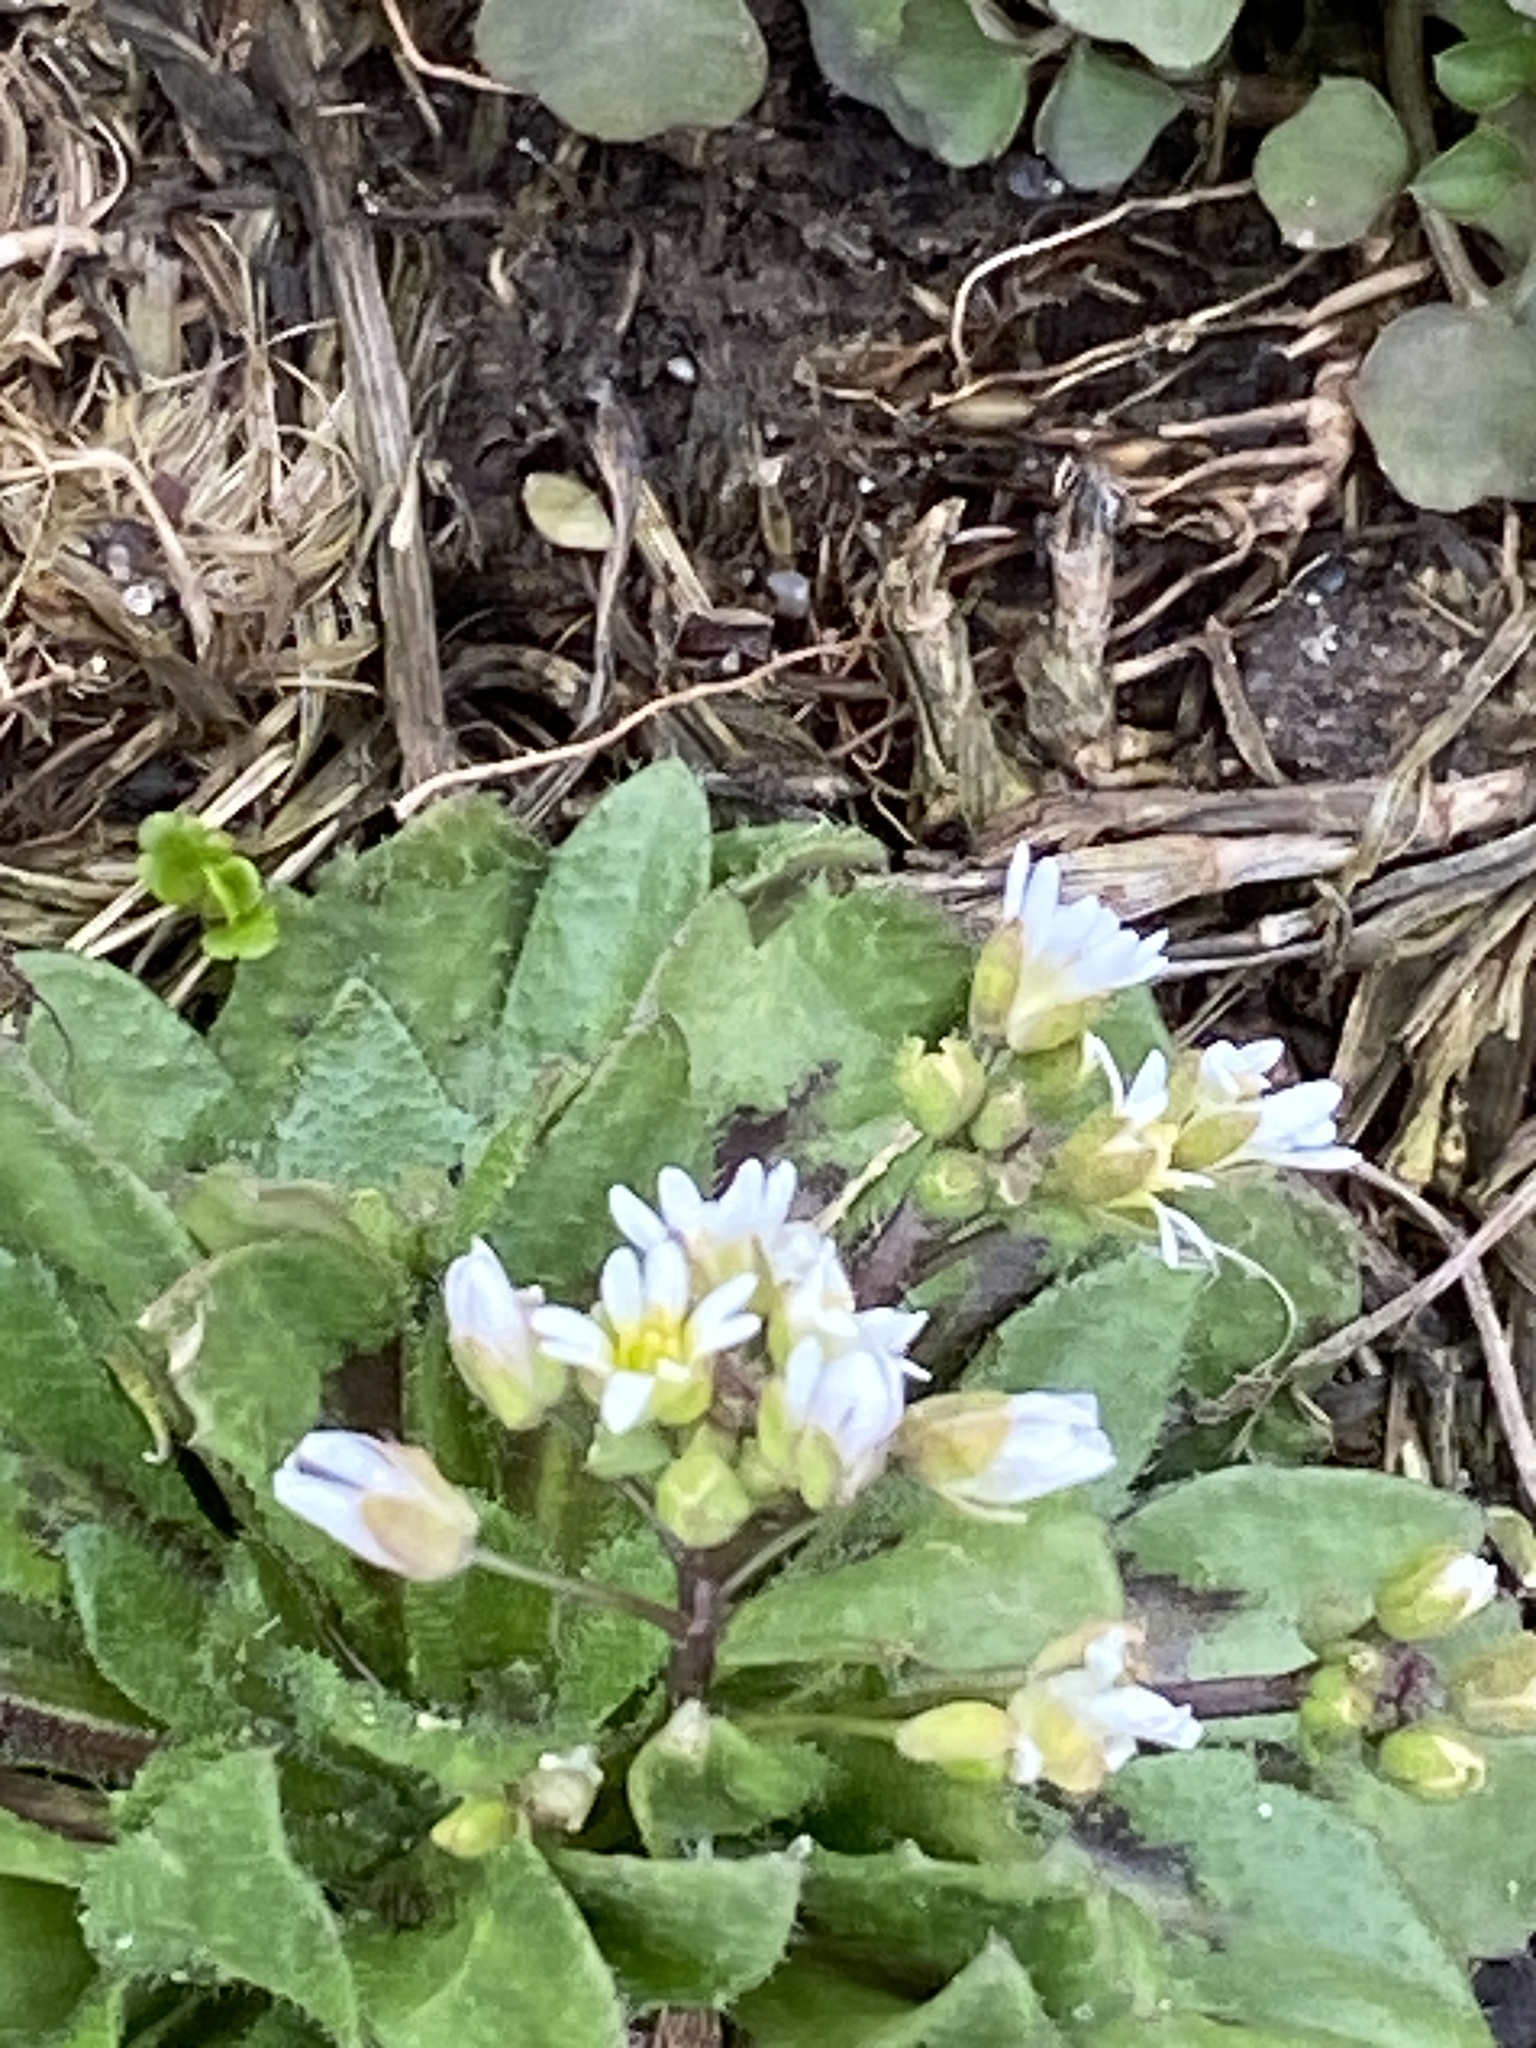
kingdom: Plantae
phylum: Tracheophyta
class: Magnoliopsida
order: Brassicales
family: Brassicaceae
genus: Draba
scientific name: Draba verna
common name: Spring draba
